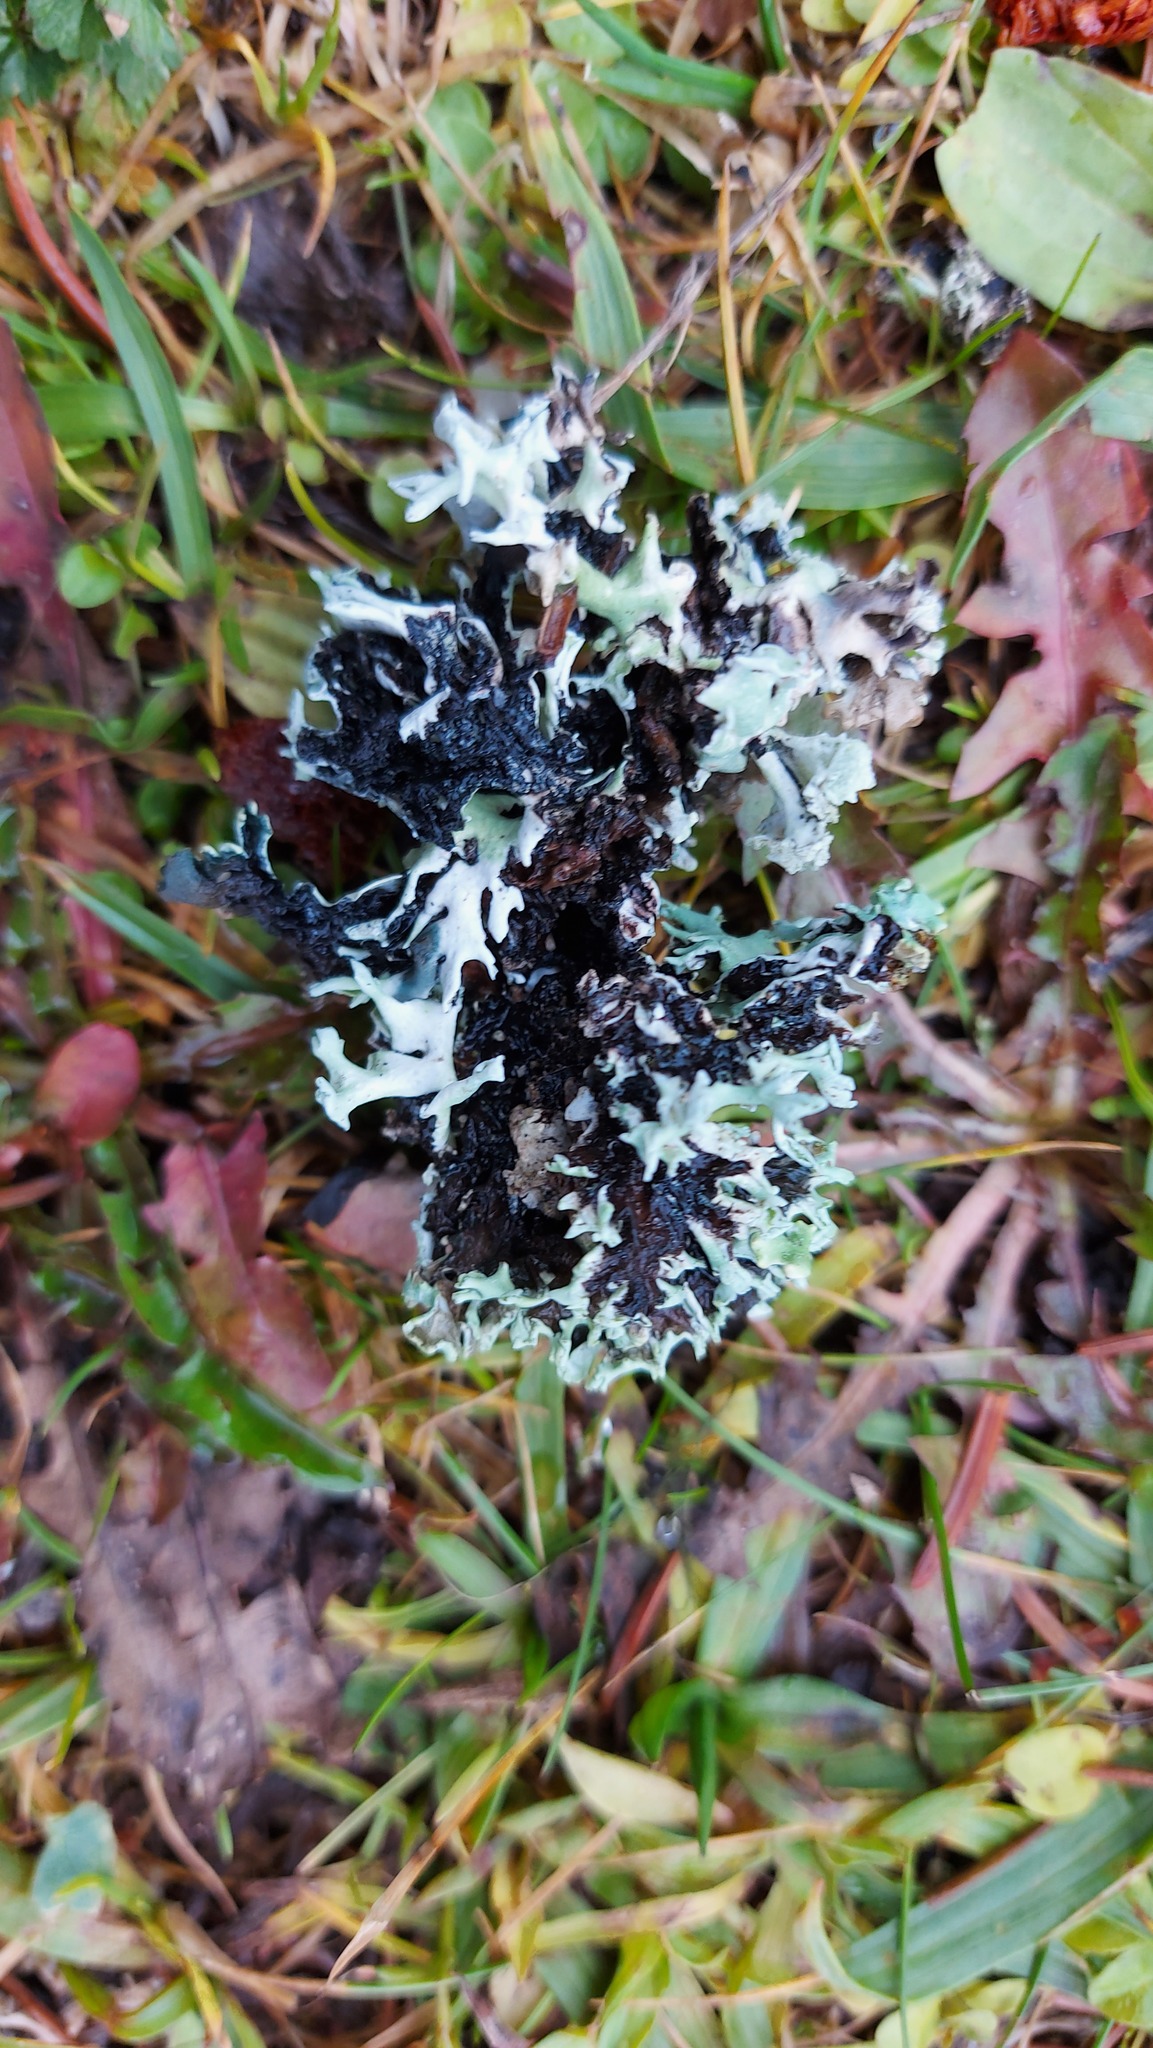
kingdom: Fungi
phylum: Ascomycota
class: Lecanoromycetes
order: Lecanorales
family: Parmeliaceae
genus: Hypogymnia
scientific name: Hypogymnia physodes
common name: Dark crottle
